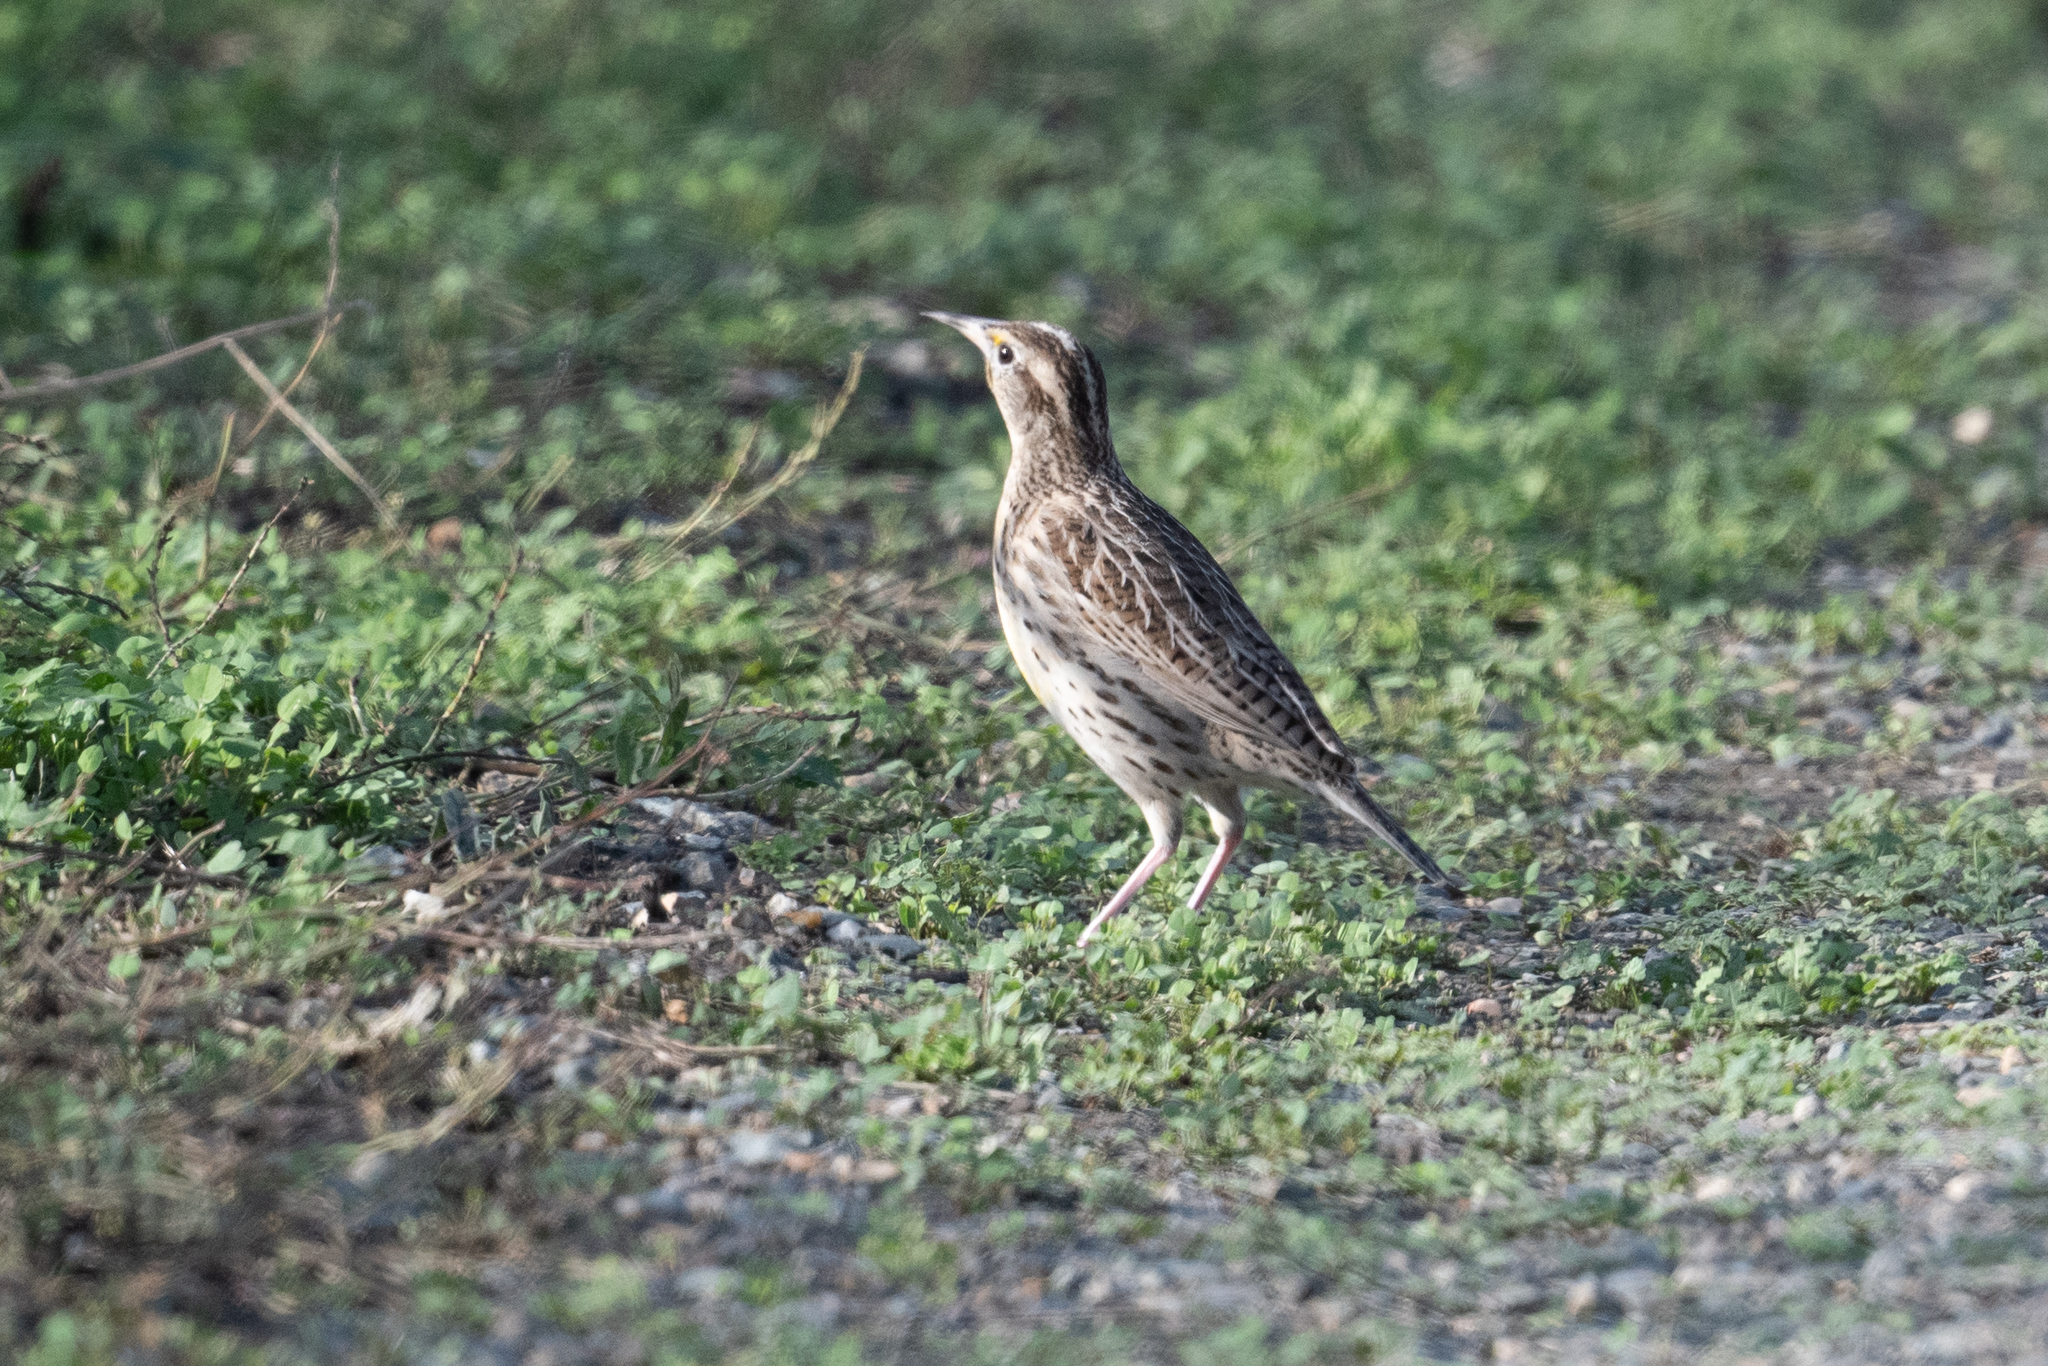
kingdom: Animalia
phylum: Chordata
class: Aves
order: Passeriformes
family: Icteridae
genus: Sturnella
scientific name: Sturnella neglecta
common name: Western meadowlark
